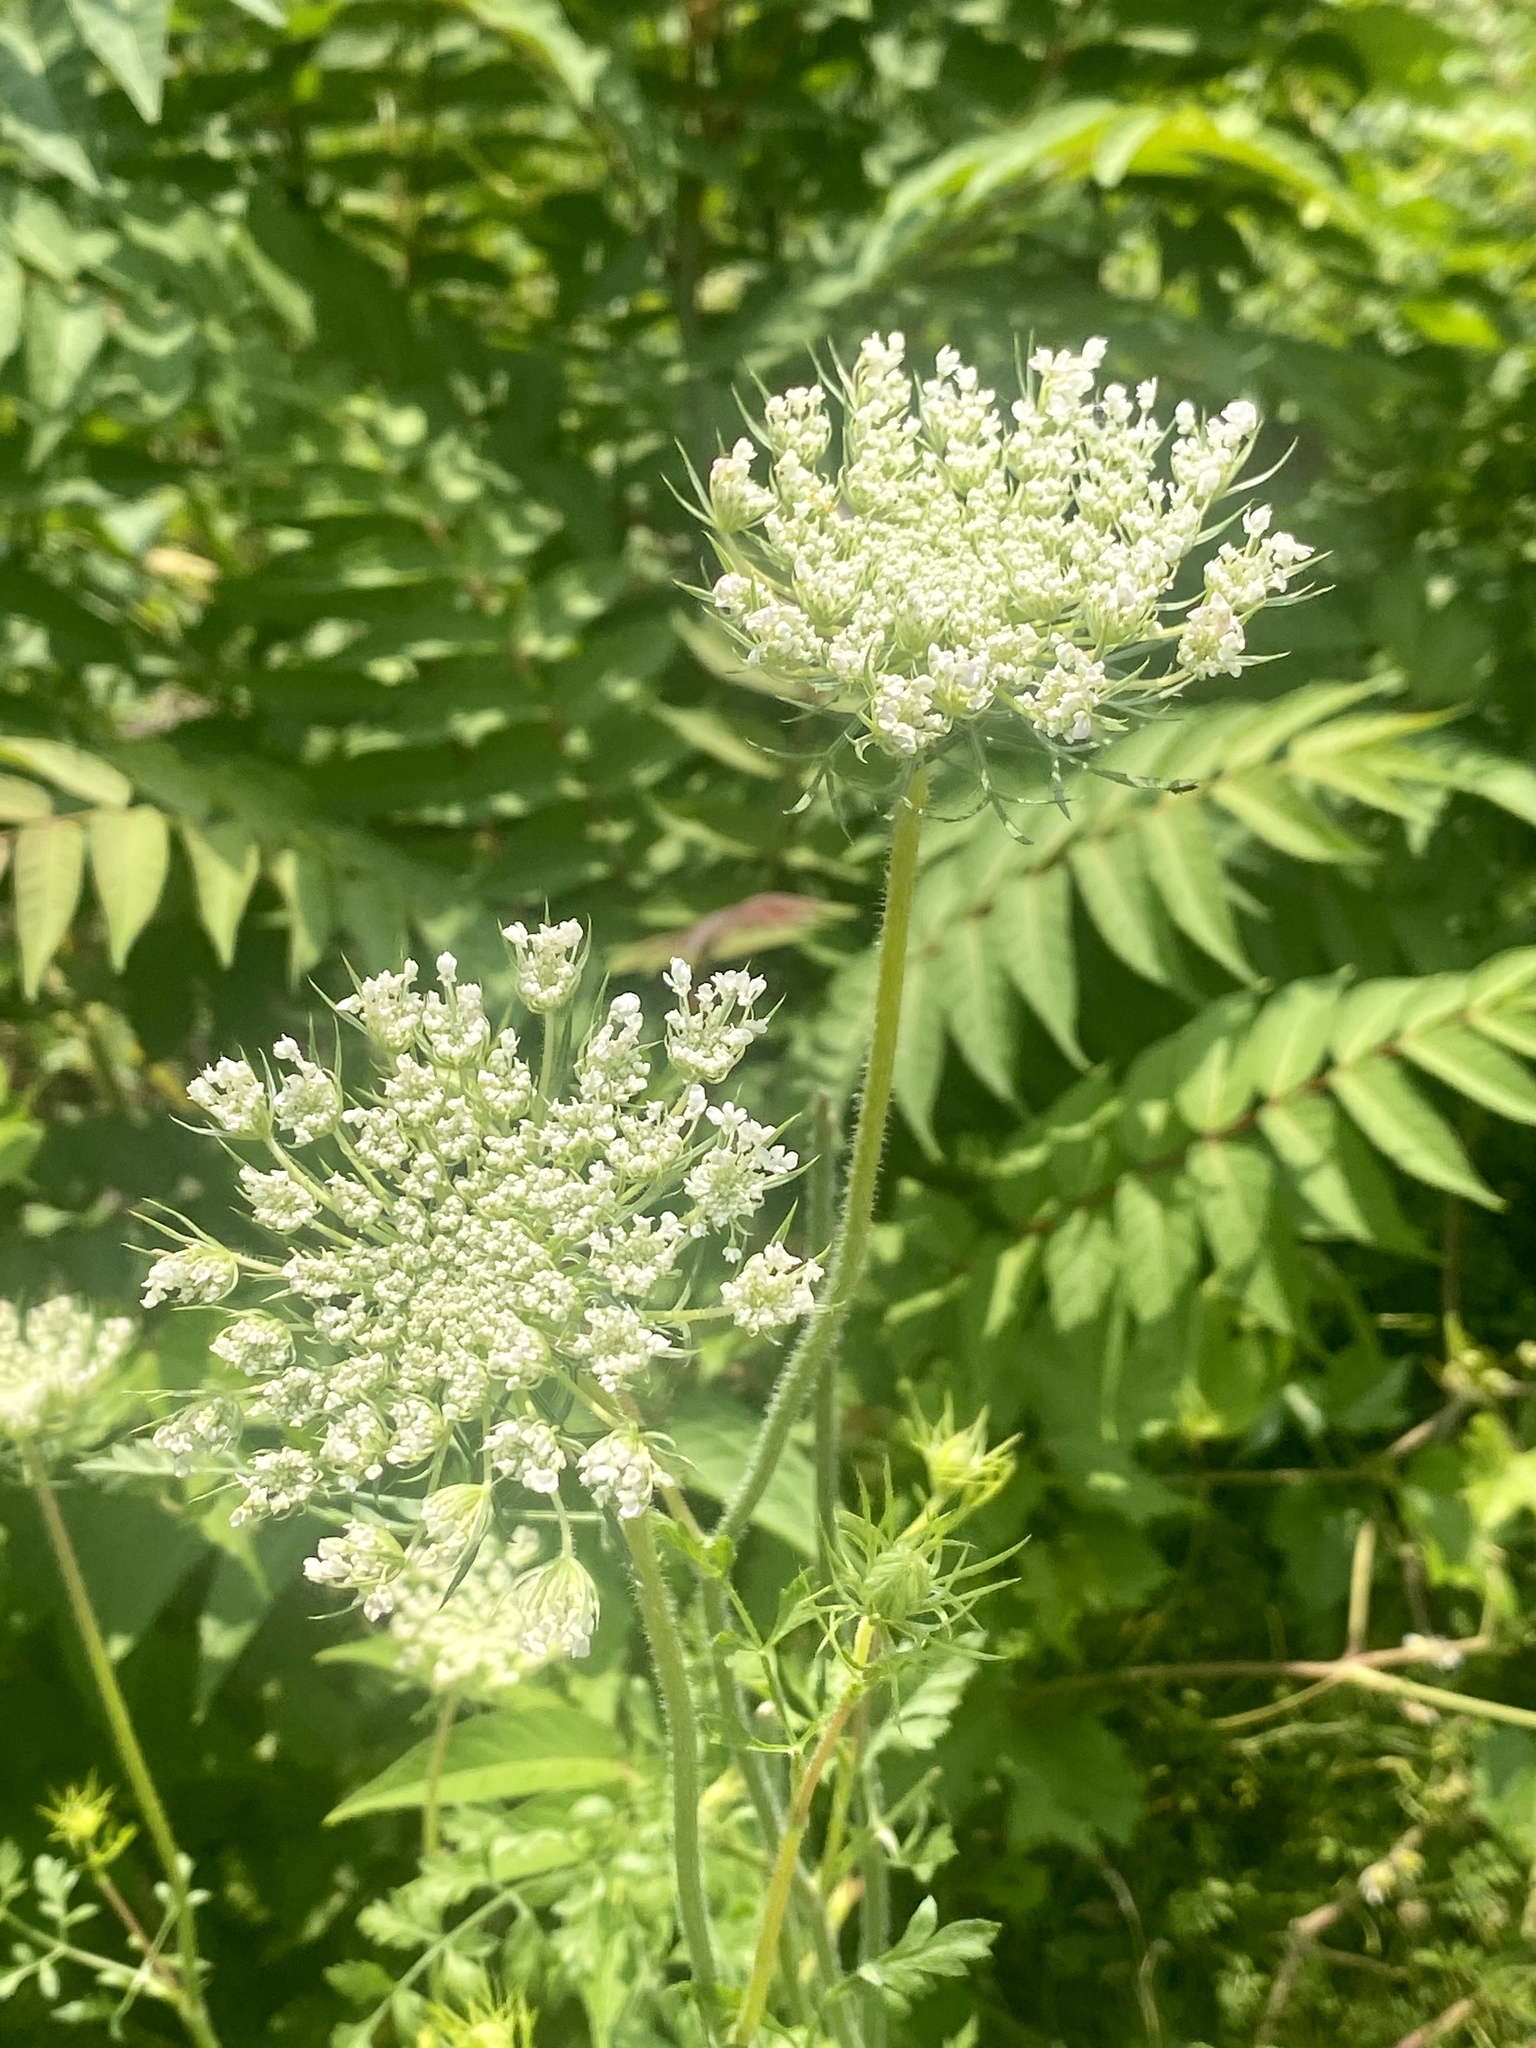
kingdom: Plantae
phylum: Tracheophyta
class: Magnoliopsida
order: Apiales
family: Apiaceae
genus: Daucus
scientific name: Daucus carota
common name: Wild carrot
